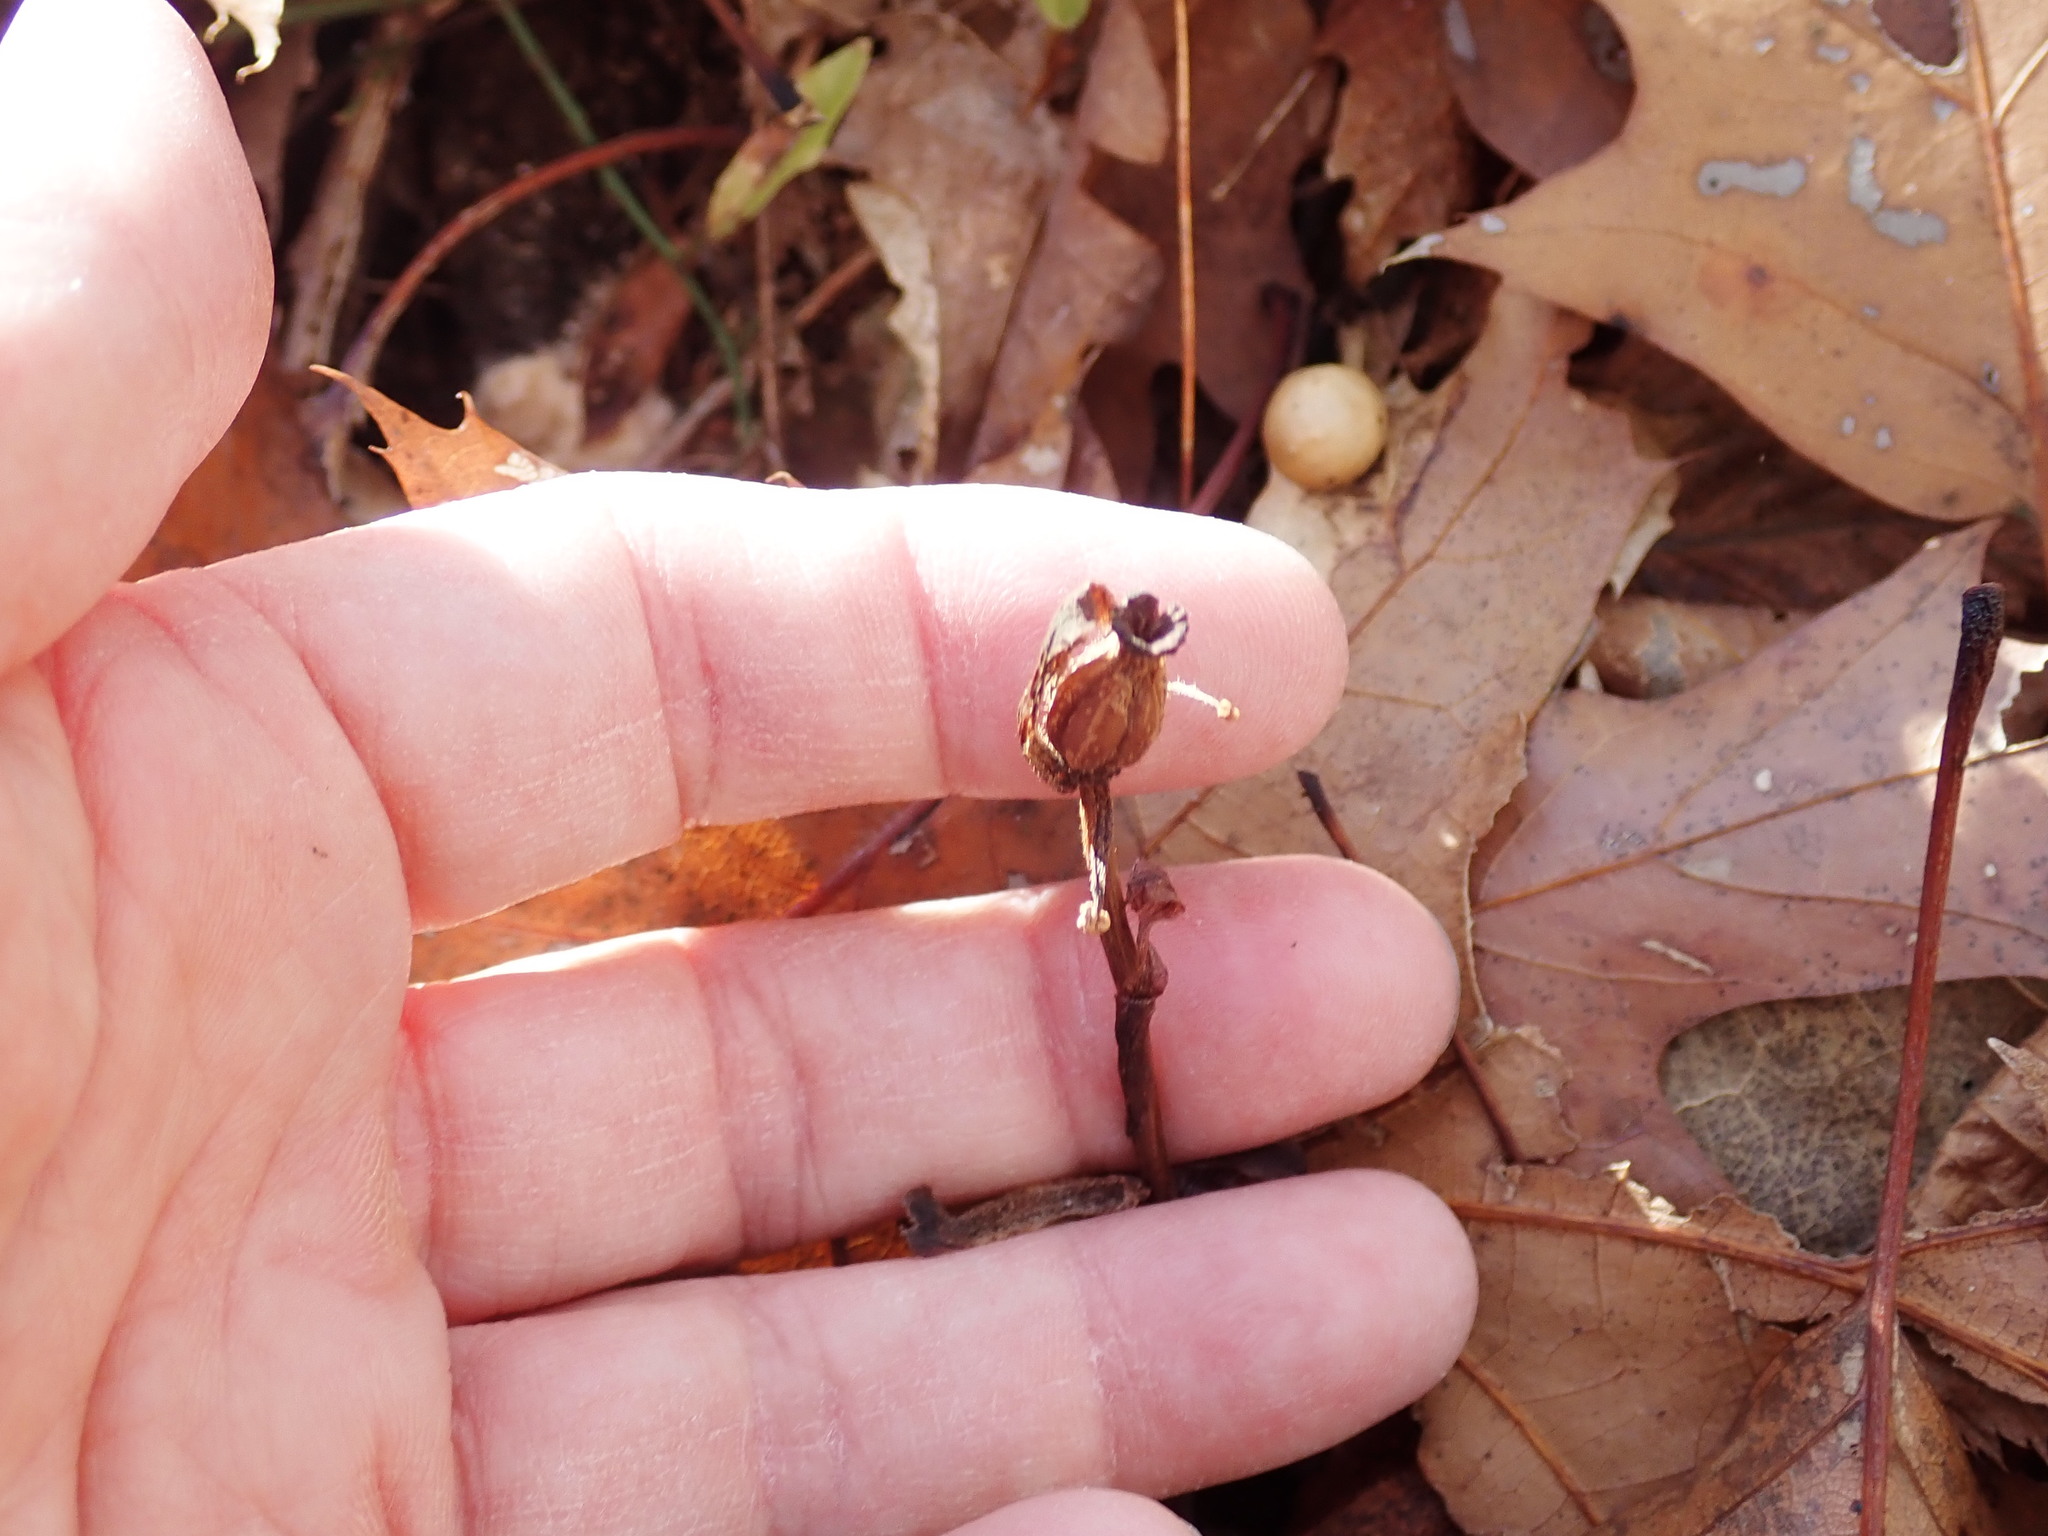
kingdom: Plantae
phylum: Tracheophyta
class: Magnoliopsida
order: Ericales
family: Ericaceae
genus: Monotropa
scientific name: Monotropa uniflora
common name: Convulsion root
